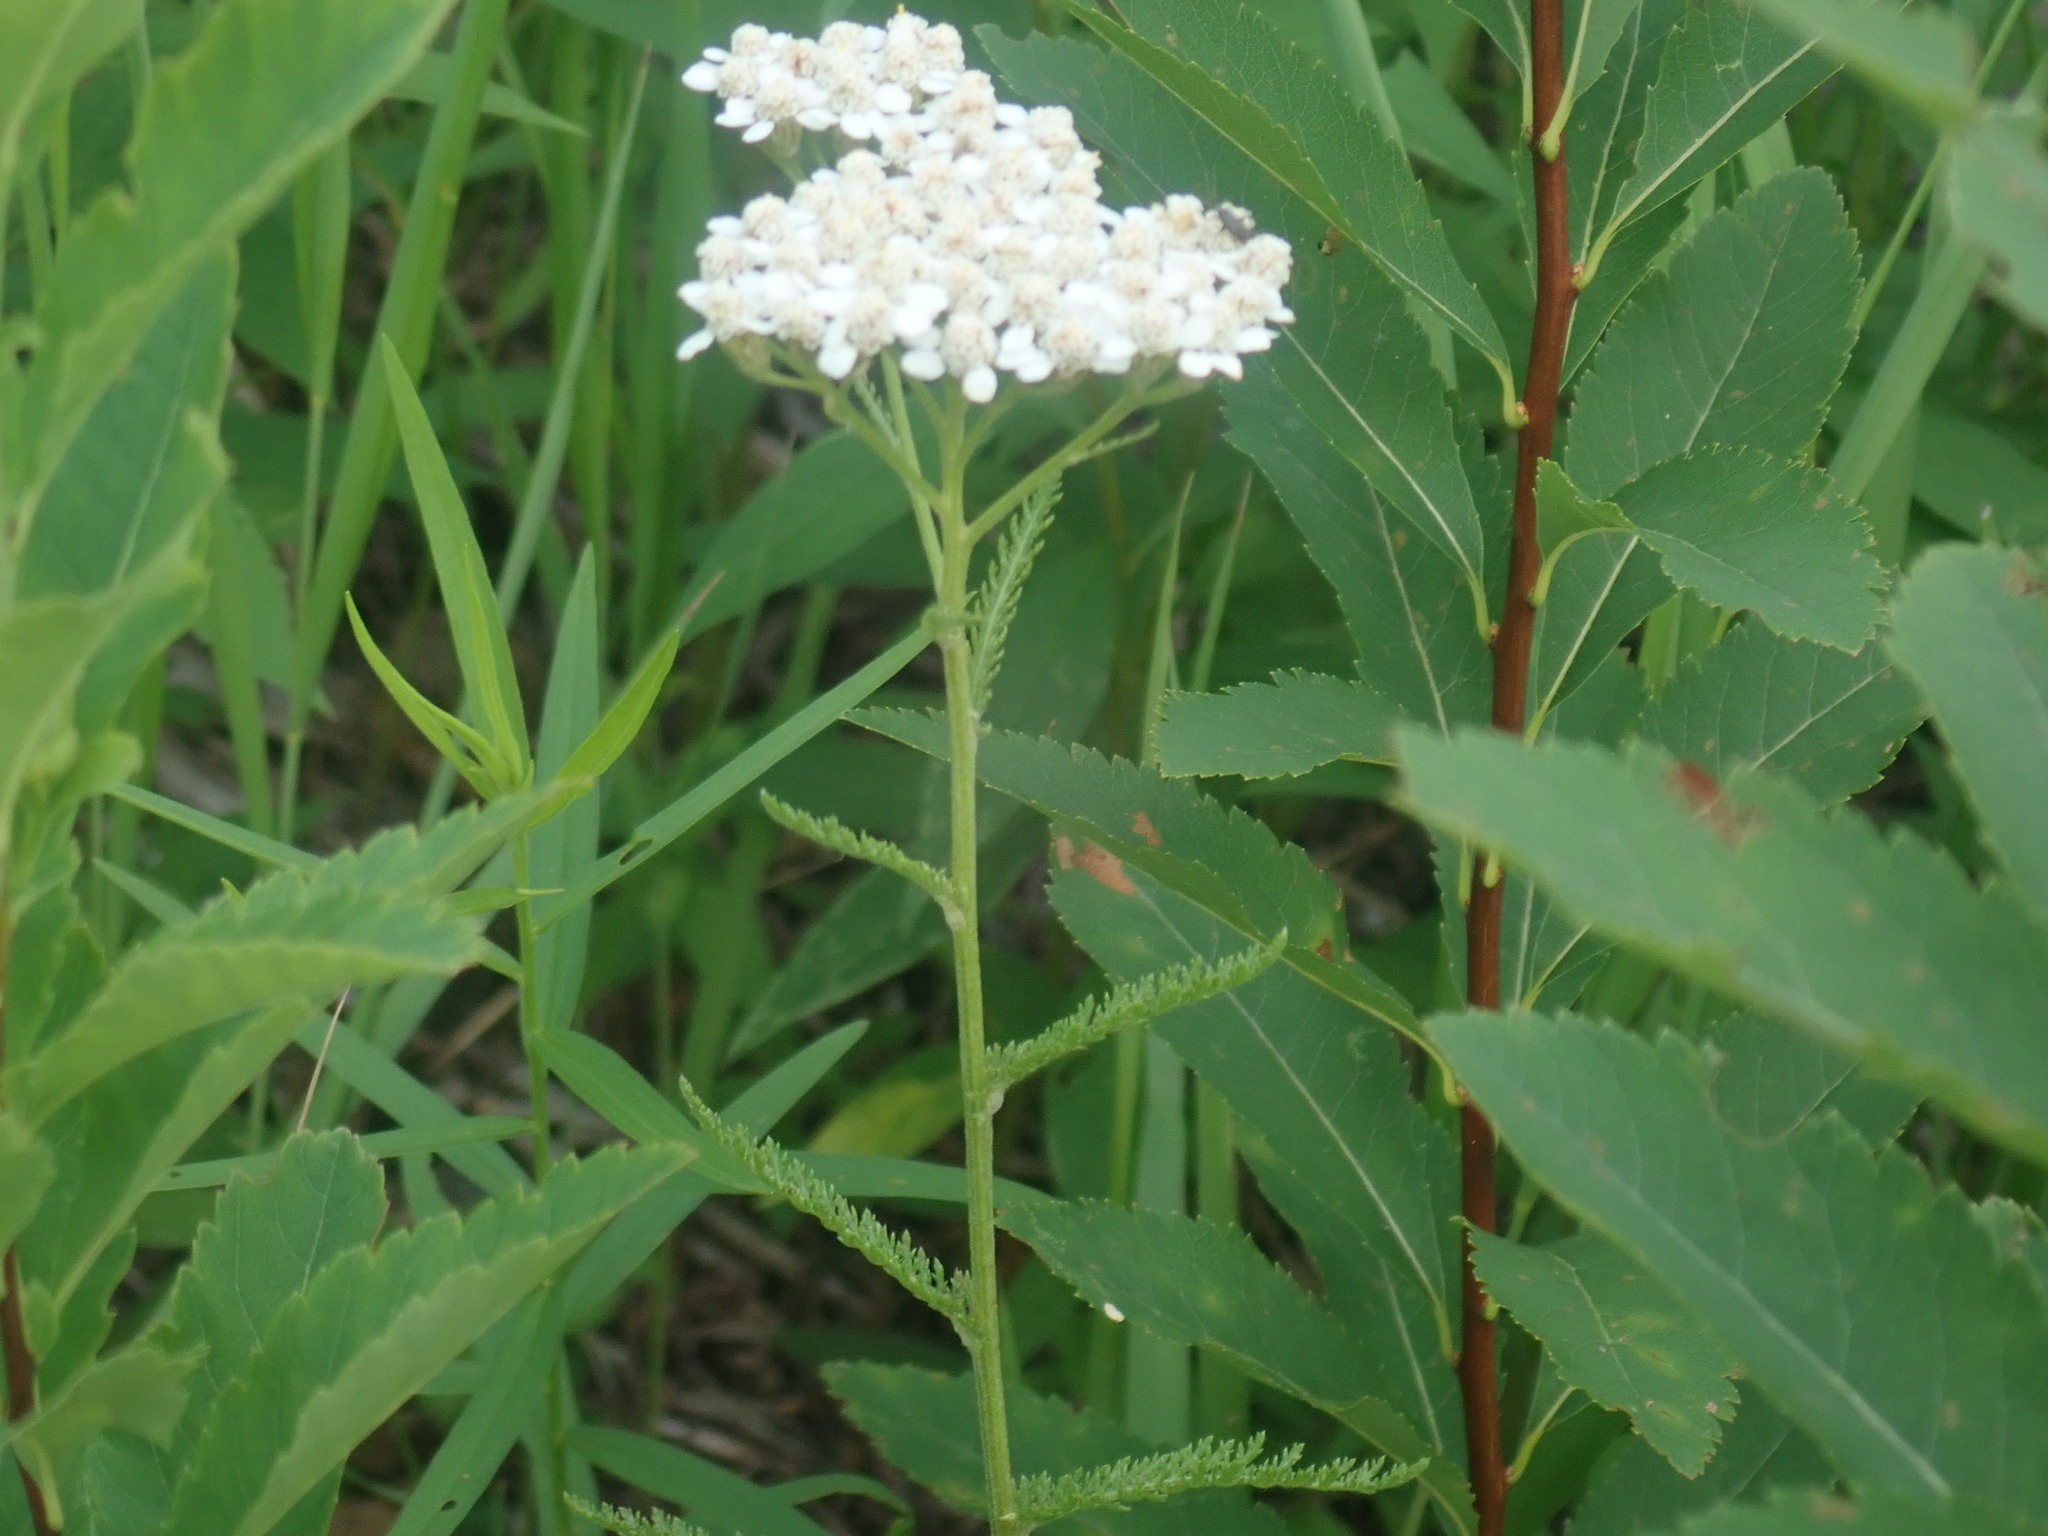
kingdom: Plantae
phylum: Tracheophyta
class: Magnoliopsida
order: Asterales
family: Asteraceae
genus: Achillea
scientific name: Achillea millefolium
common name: Yarrow
